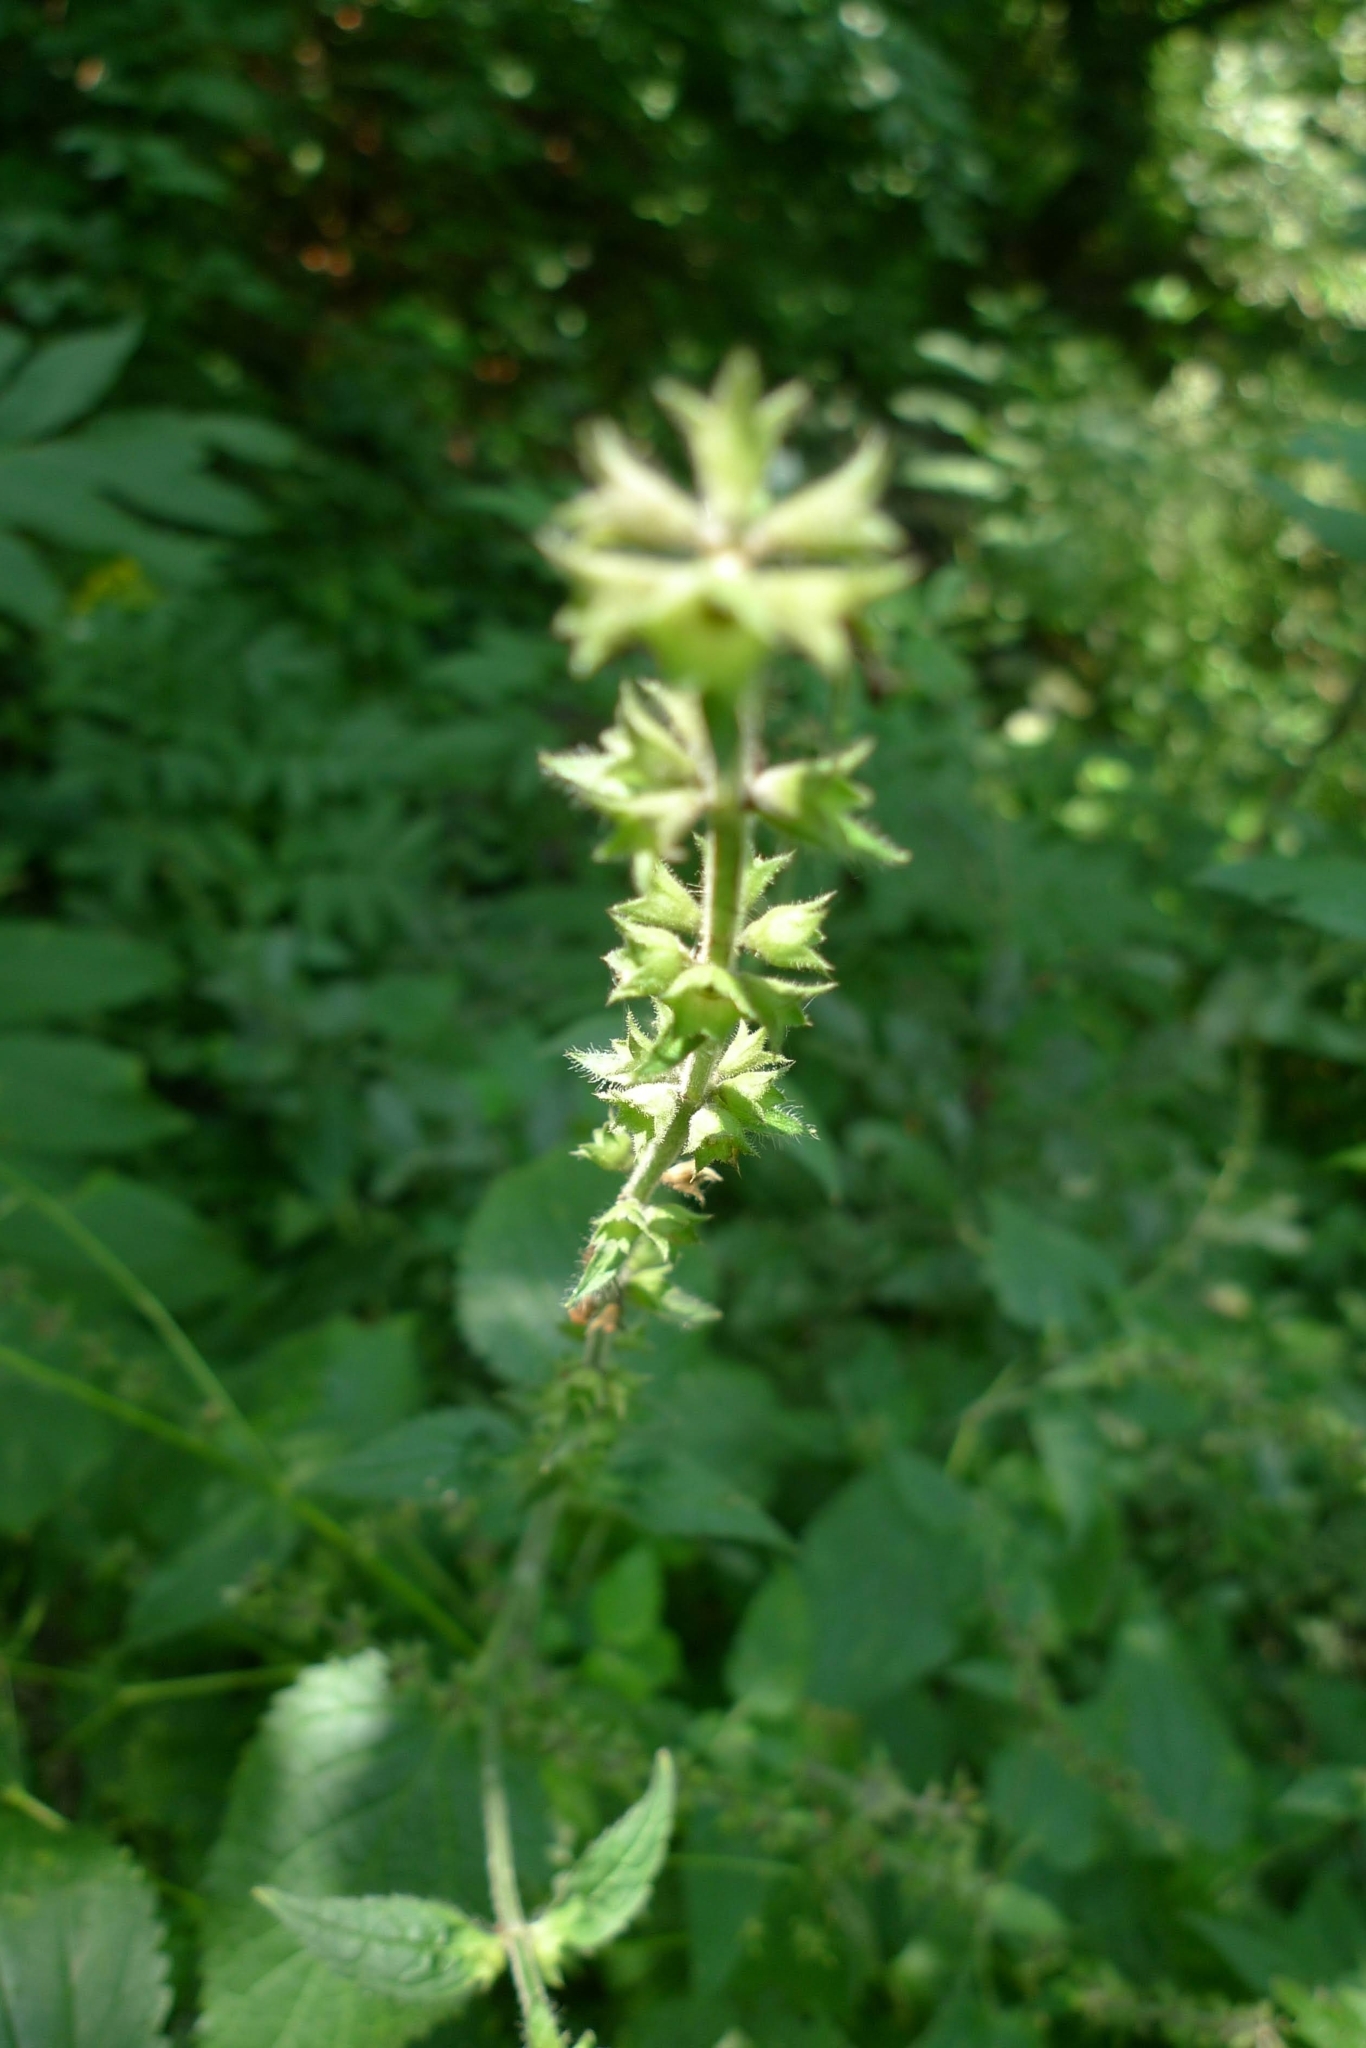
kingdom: Plantae
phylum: Tracheophyta
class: Magnoliopsida
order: Lamiales
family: Lamiaceae
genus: Stachys
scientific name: Stachys sylvatica
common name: Hedge woundwort
